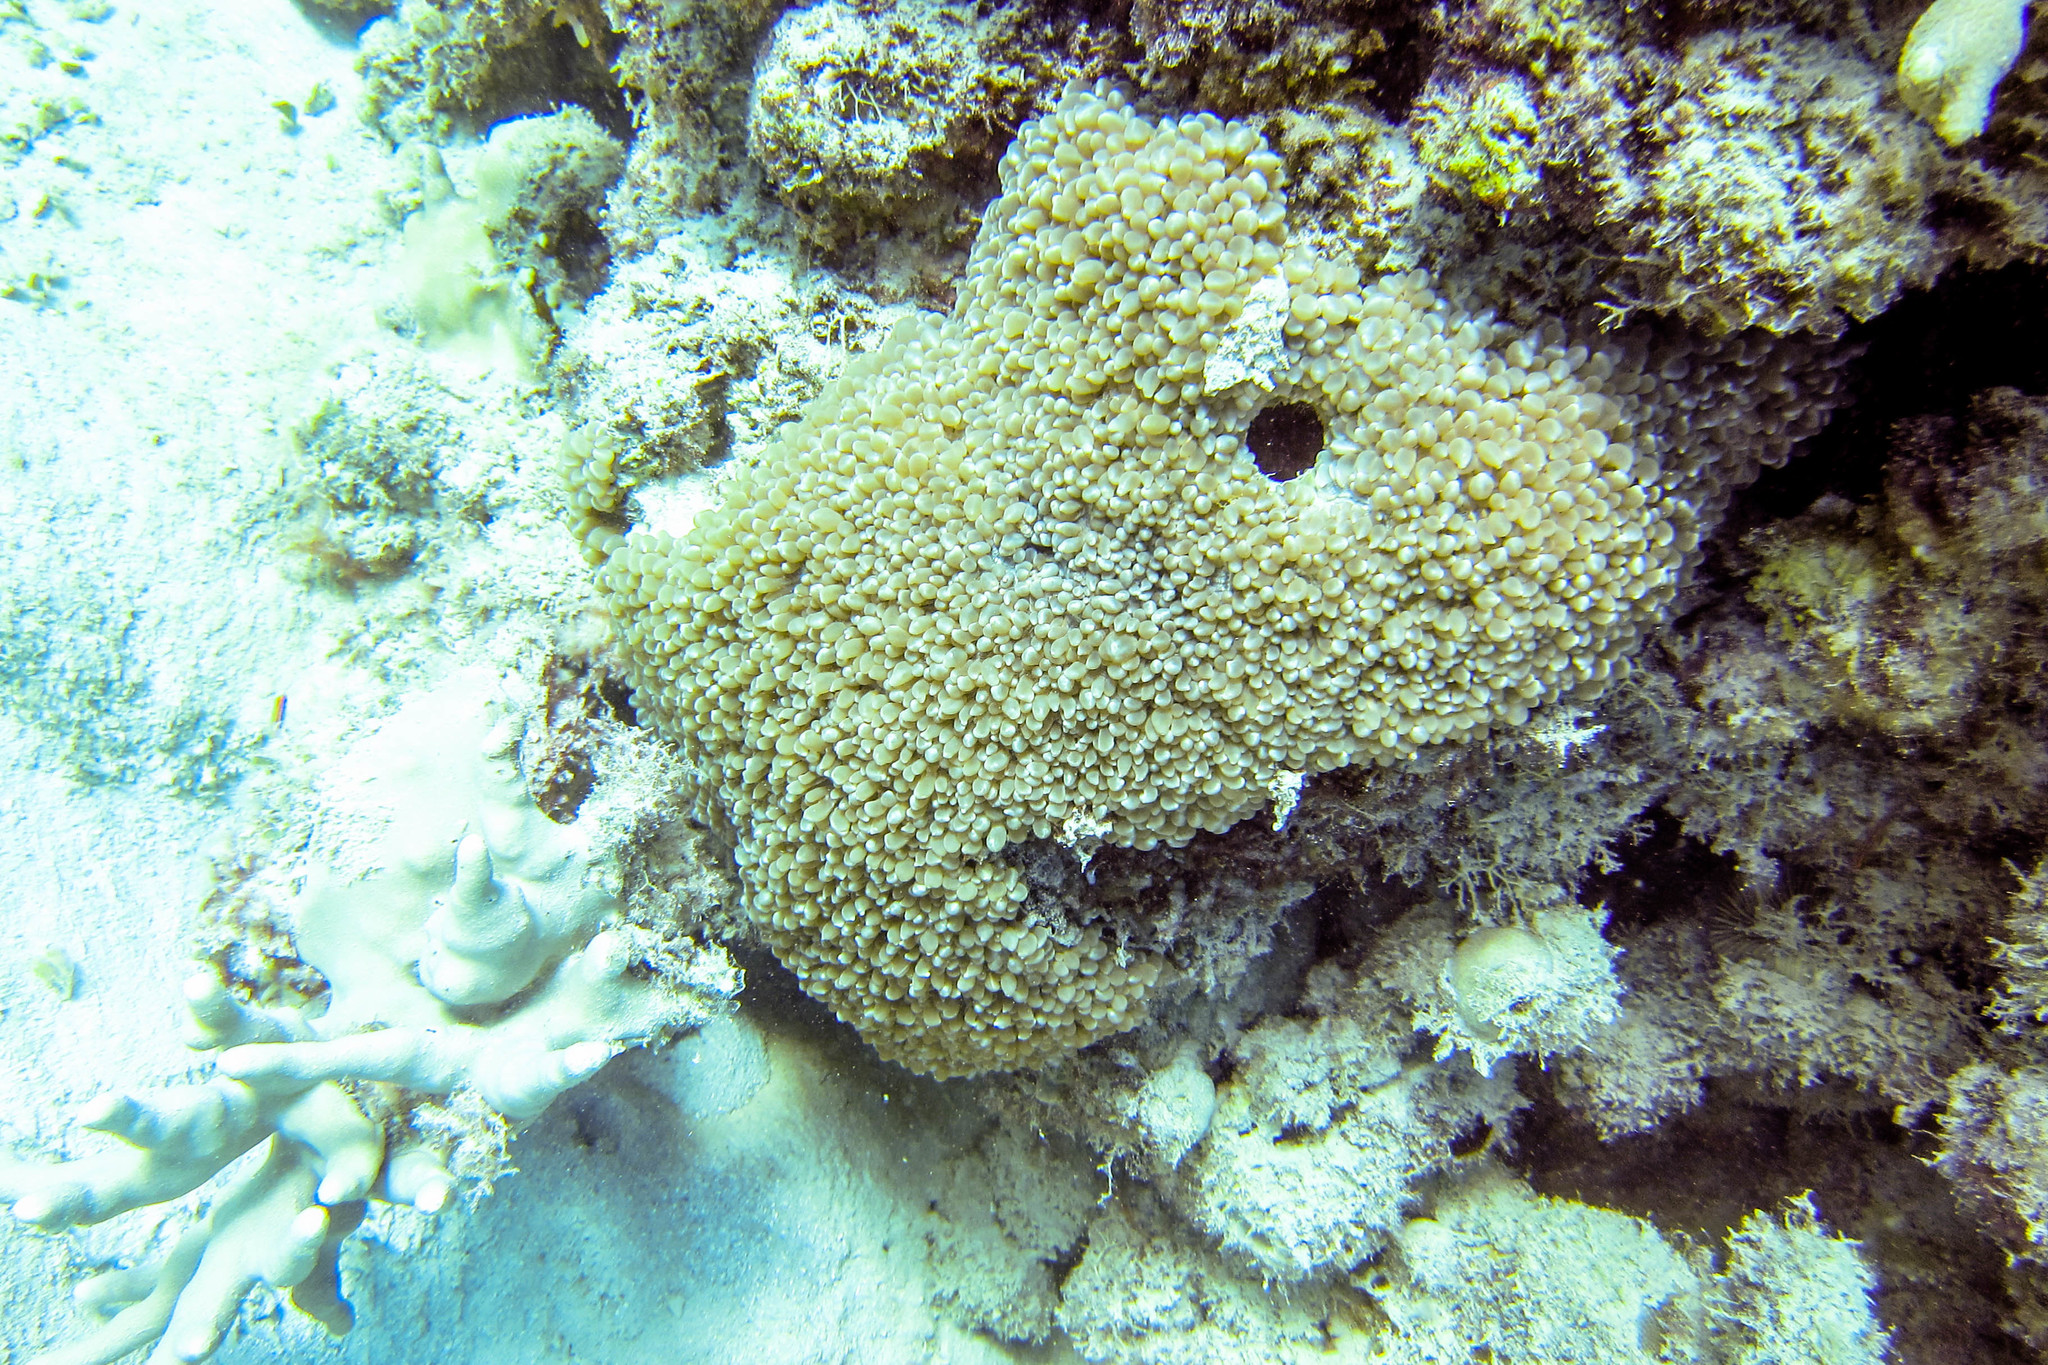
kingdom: Animalia
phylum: Cnidaria
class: Anthozoa
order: Scleractinia
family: Plerogyridae
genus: Physogyra
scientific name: Physogyra lichtensteini
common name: Tipped bubblegum coral
